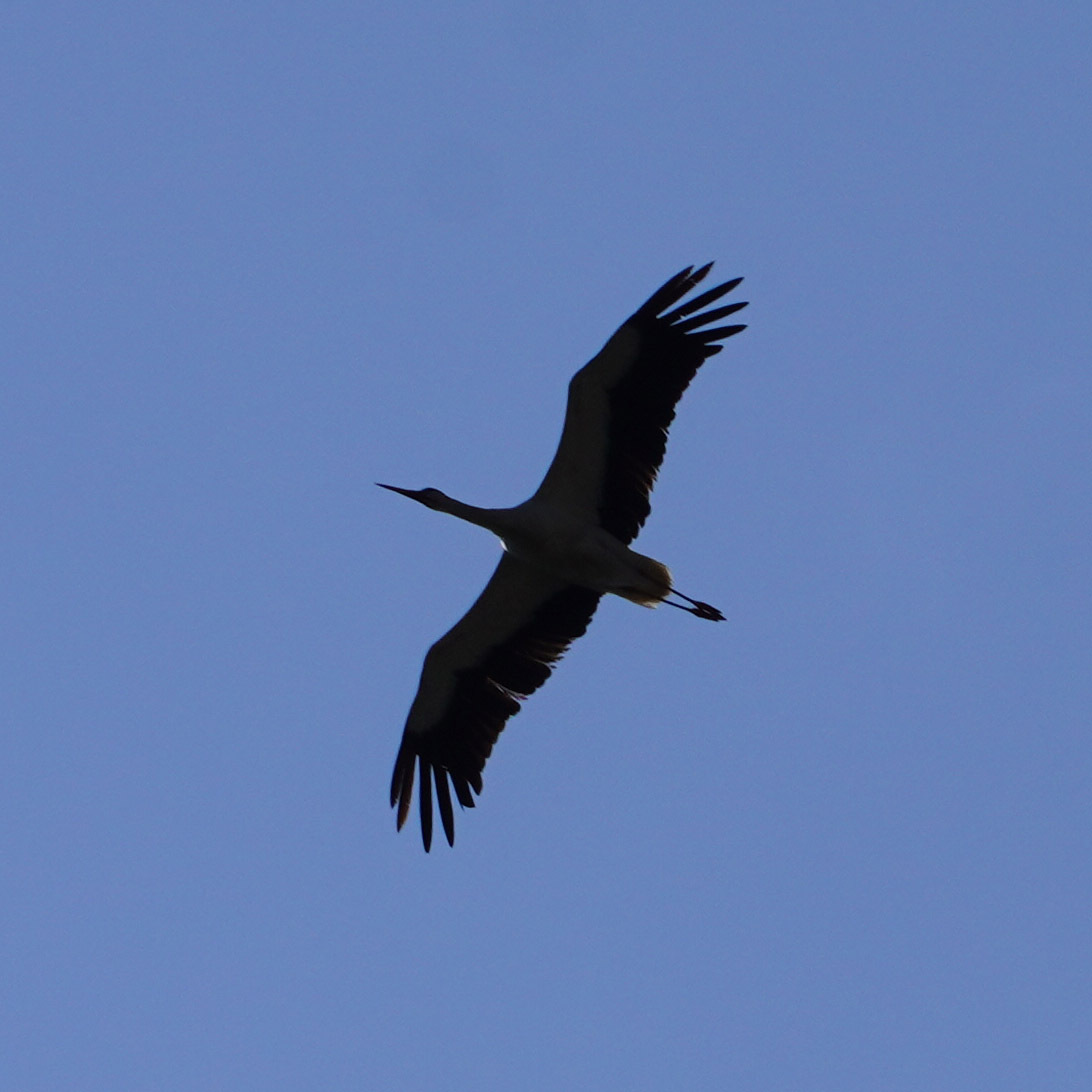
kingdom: Animalia
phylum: Chordata
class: Aves
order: Ciconiiformes
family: Ciconiidae
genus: Ciconia
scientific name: Ciconia ciconia
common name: White stork
